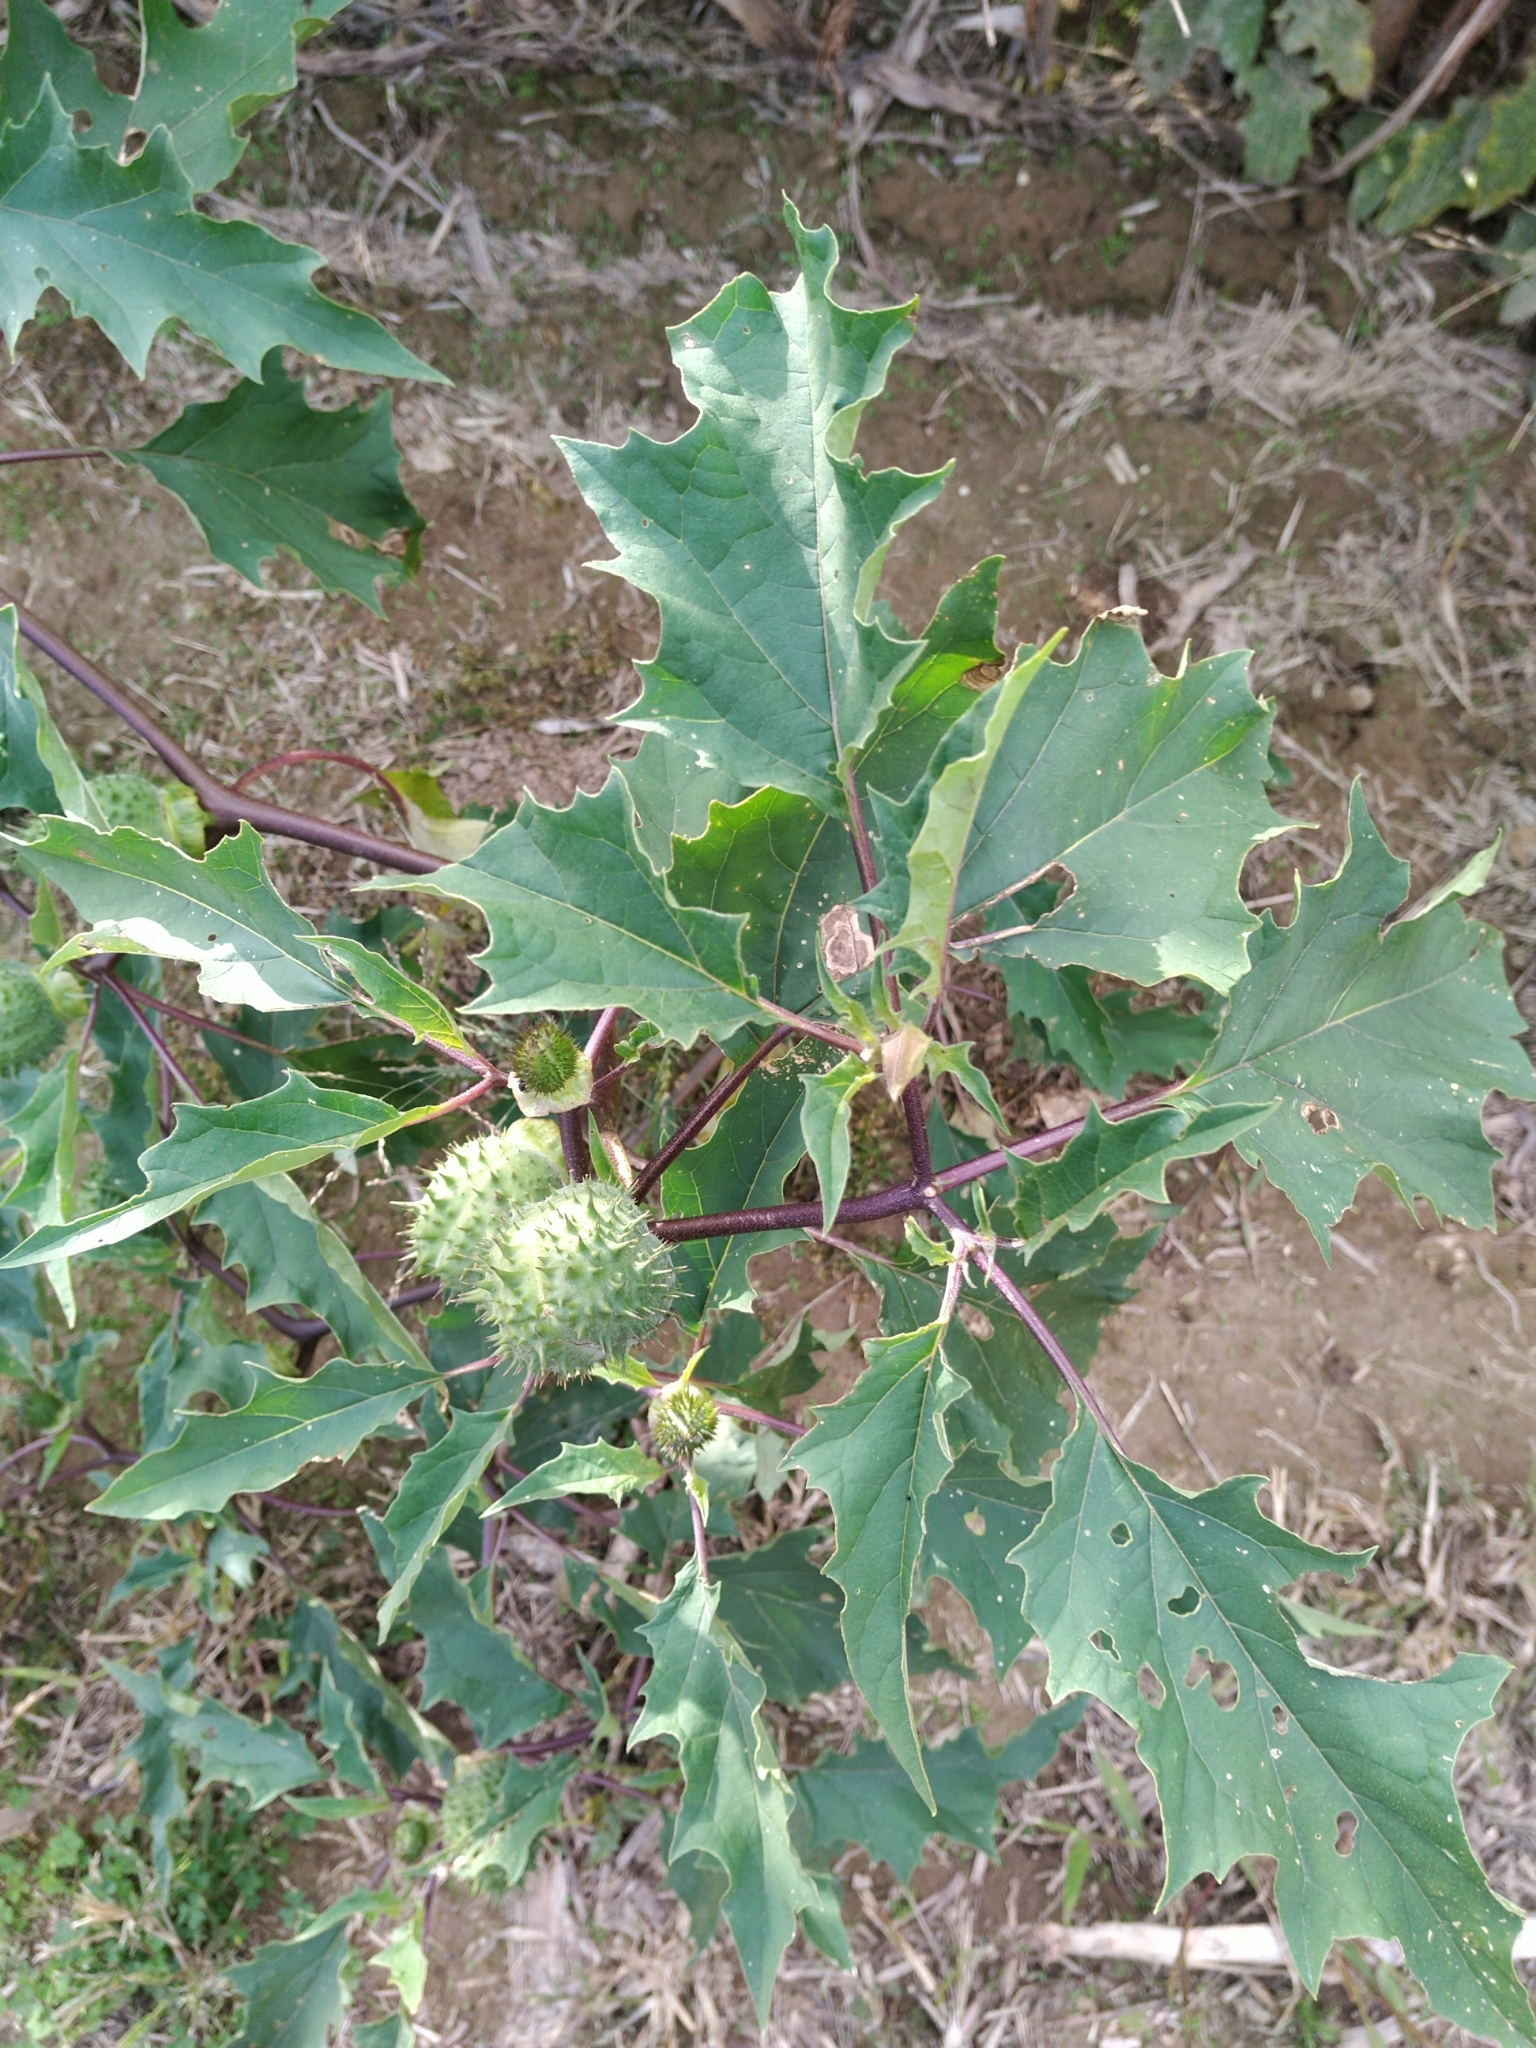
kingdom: Plantae
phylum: Tracheophyta
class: Magnoliopsida
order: Solanales
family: Solanaceae
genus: Datura
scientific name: Datura stramonium
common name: Thorn-apple
